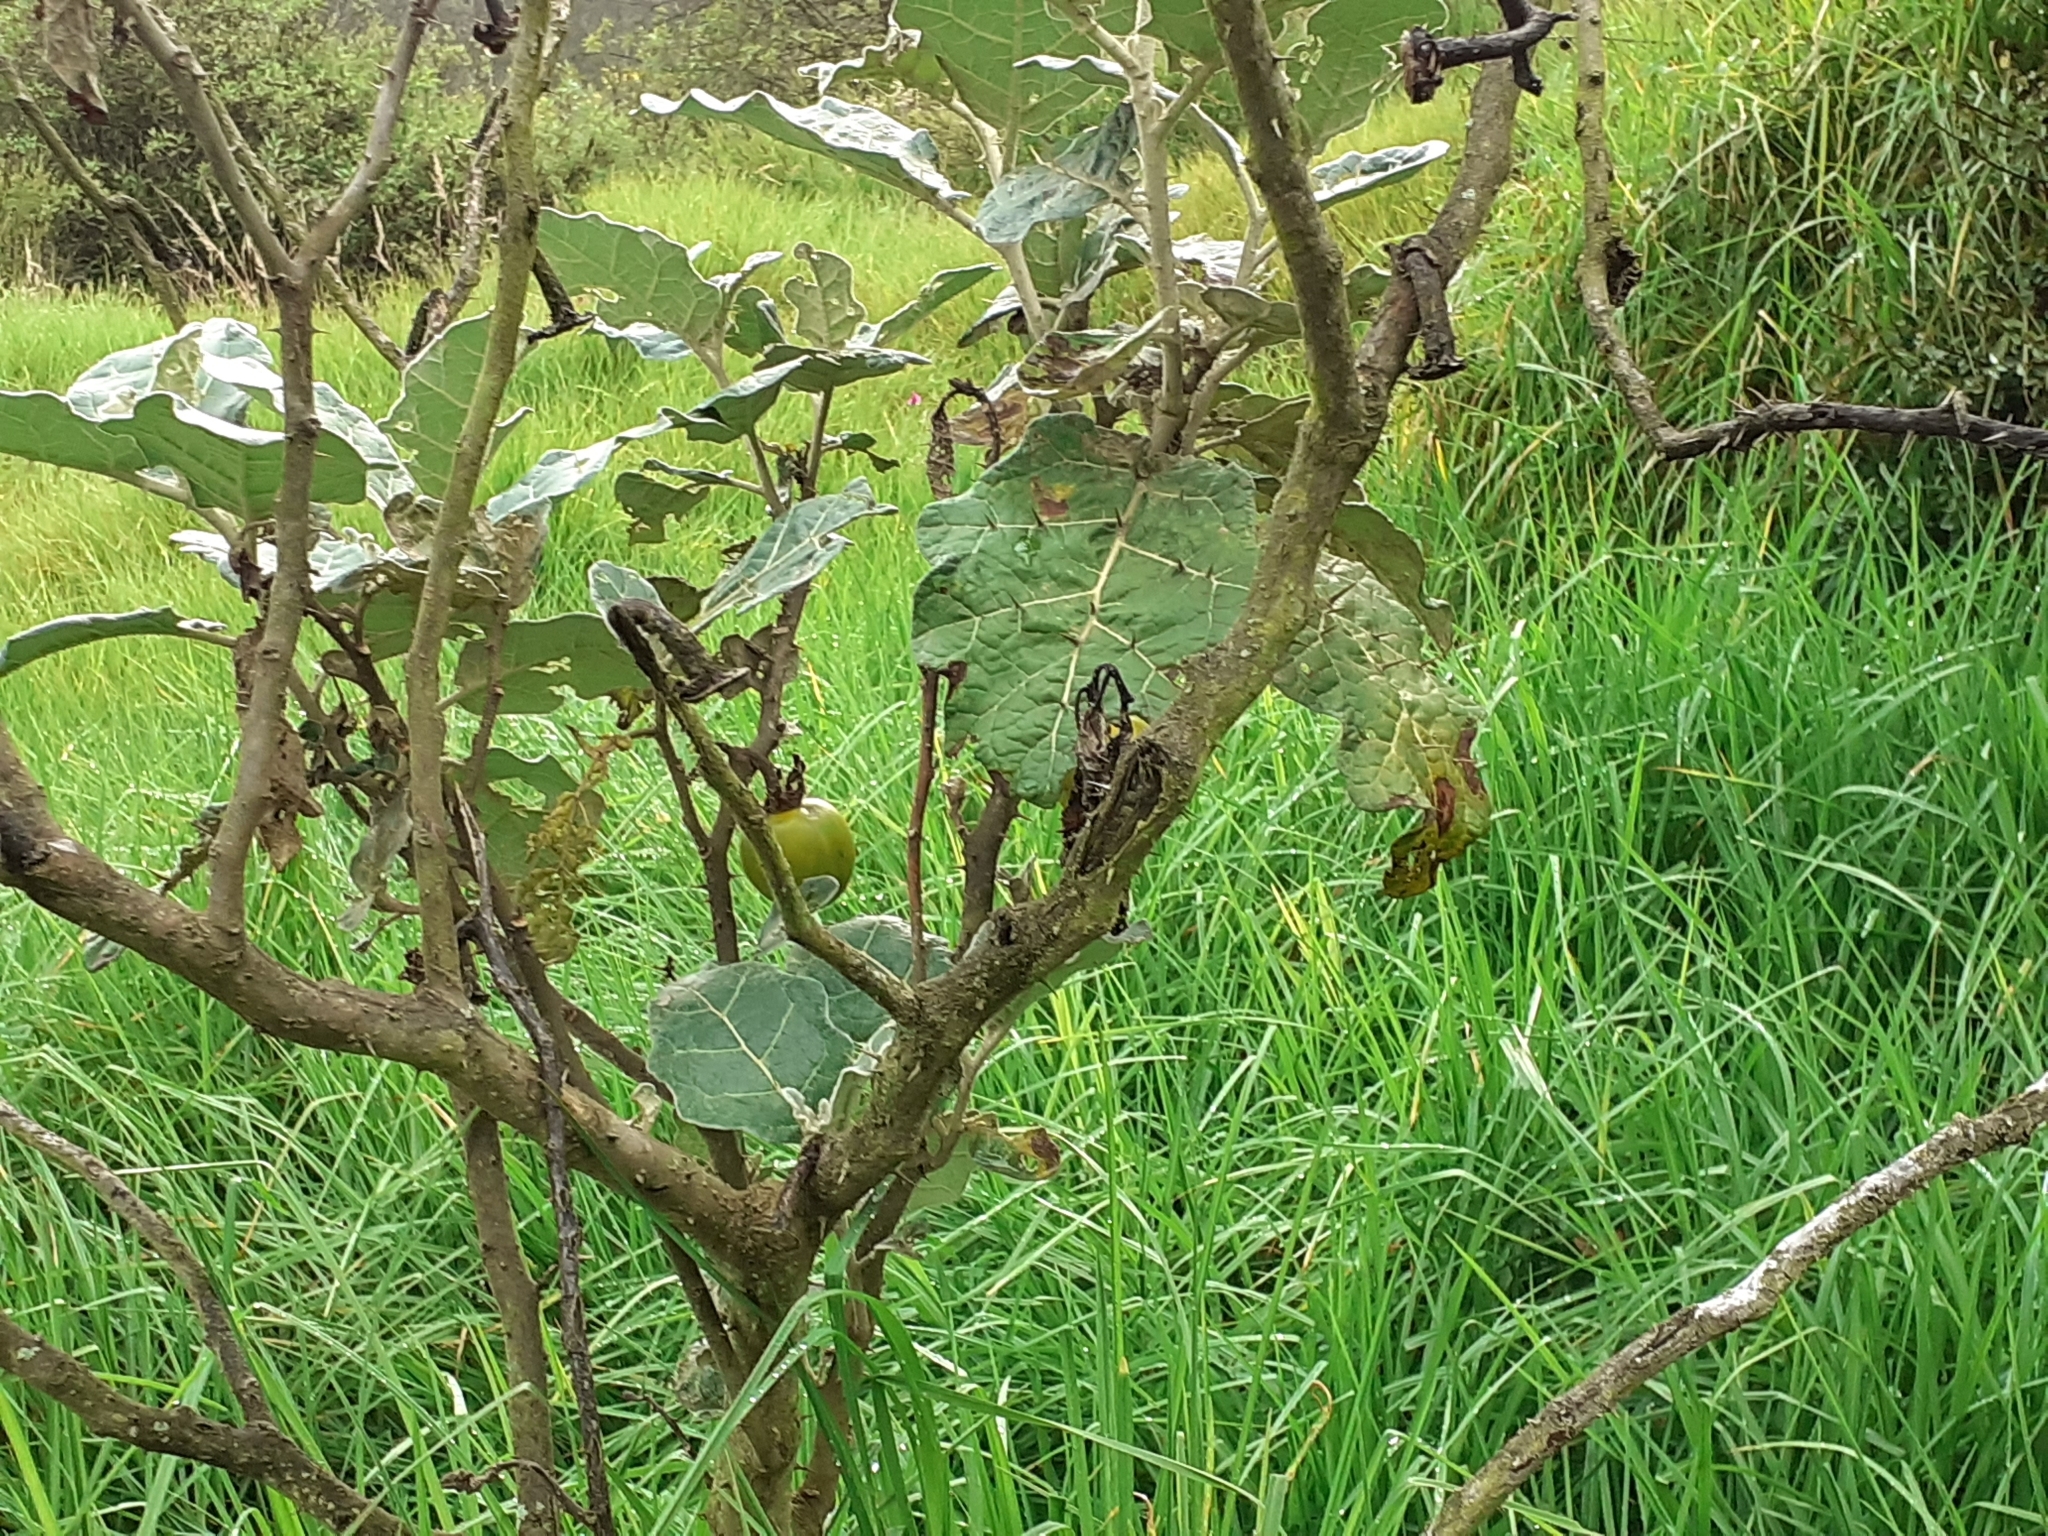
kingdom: Plantae
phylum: Tracheophyta
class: Magnoliopsida
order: Solanales
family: Solanaceae
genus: Solanum
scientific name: Solanum marginatum
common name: Purple african nightshade
